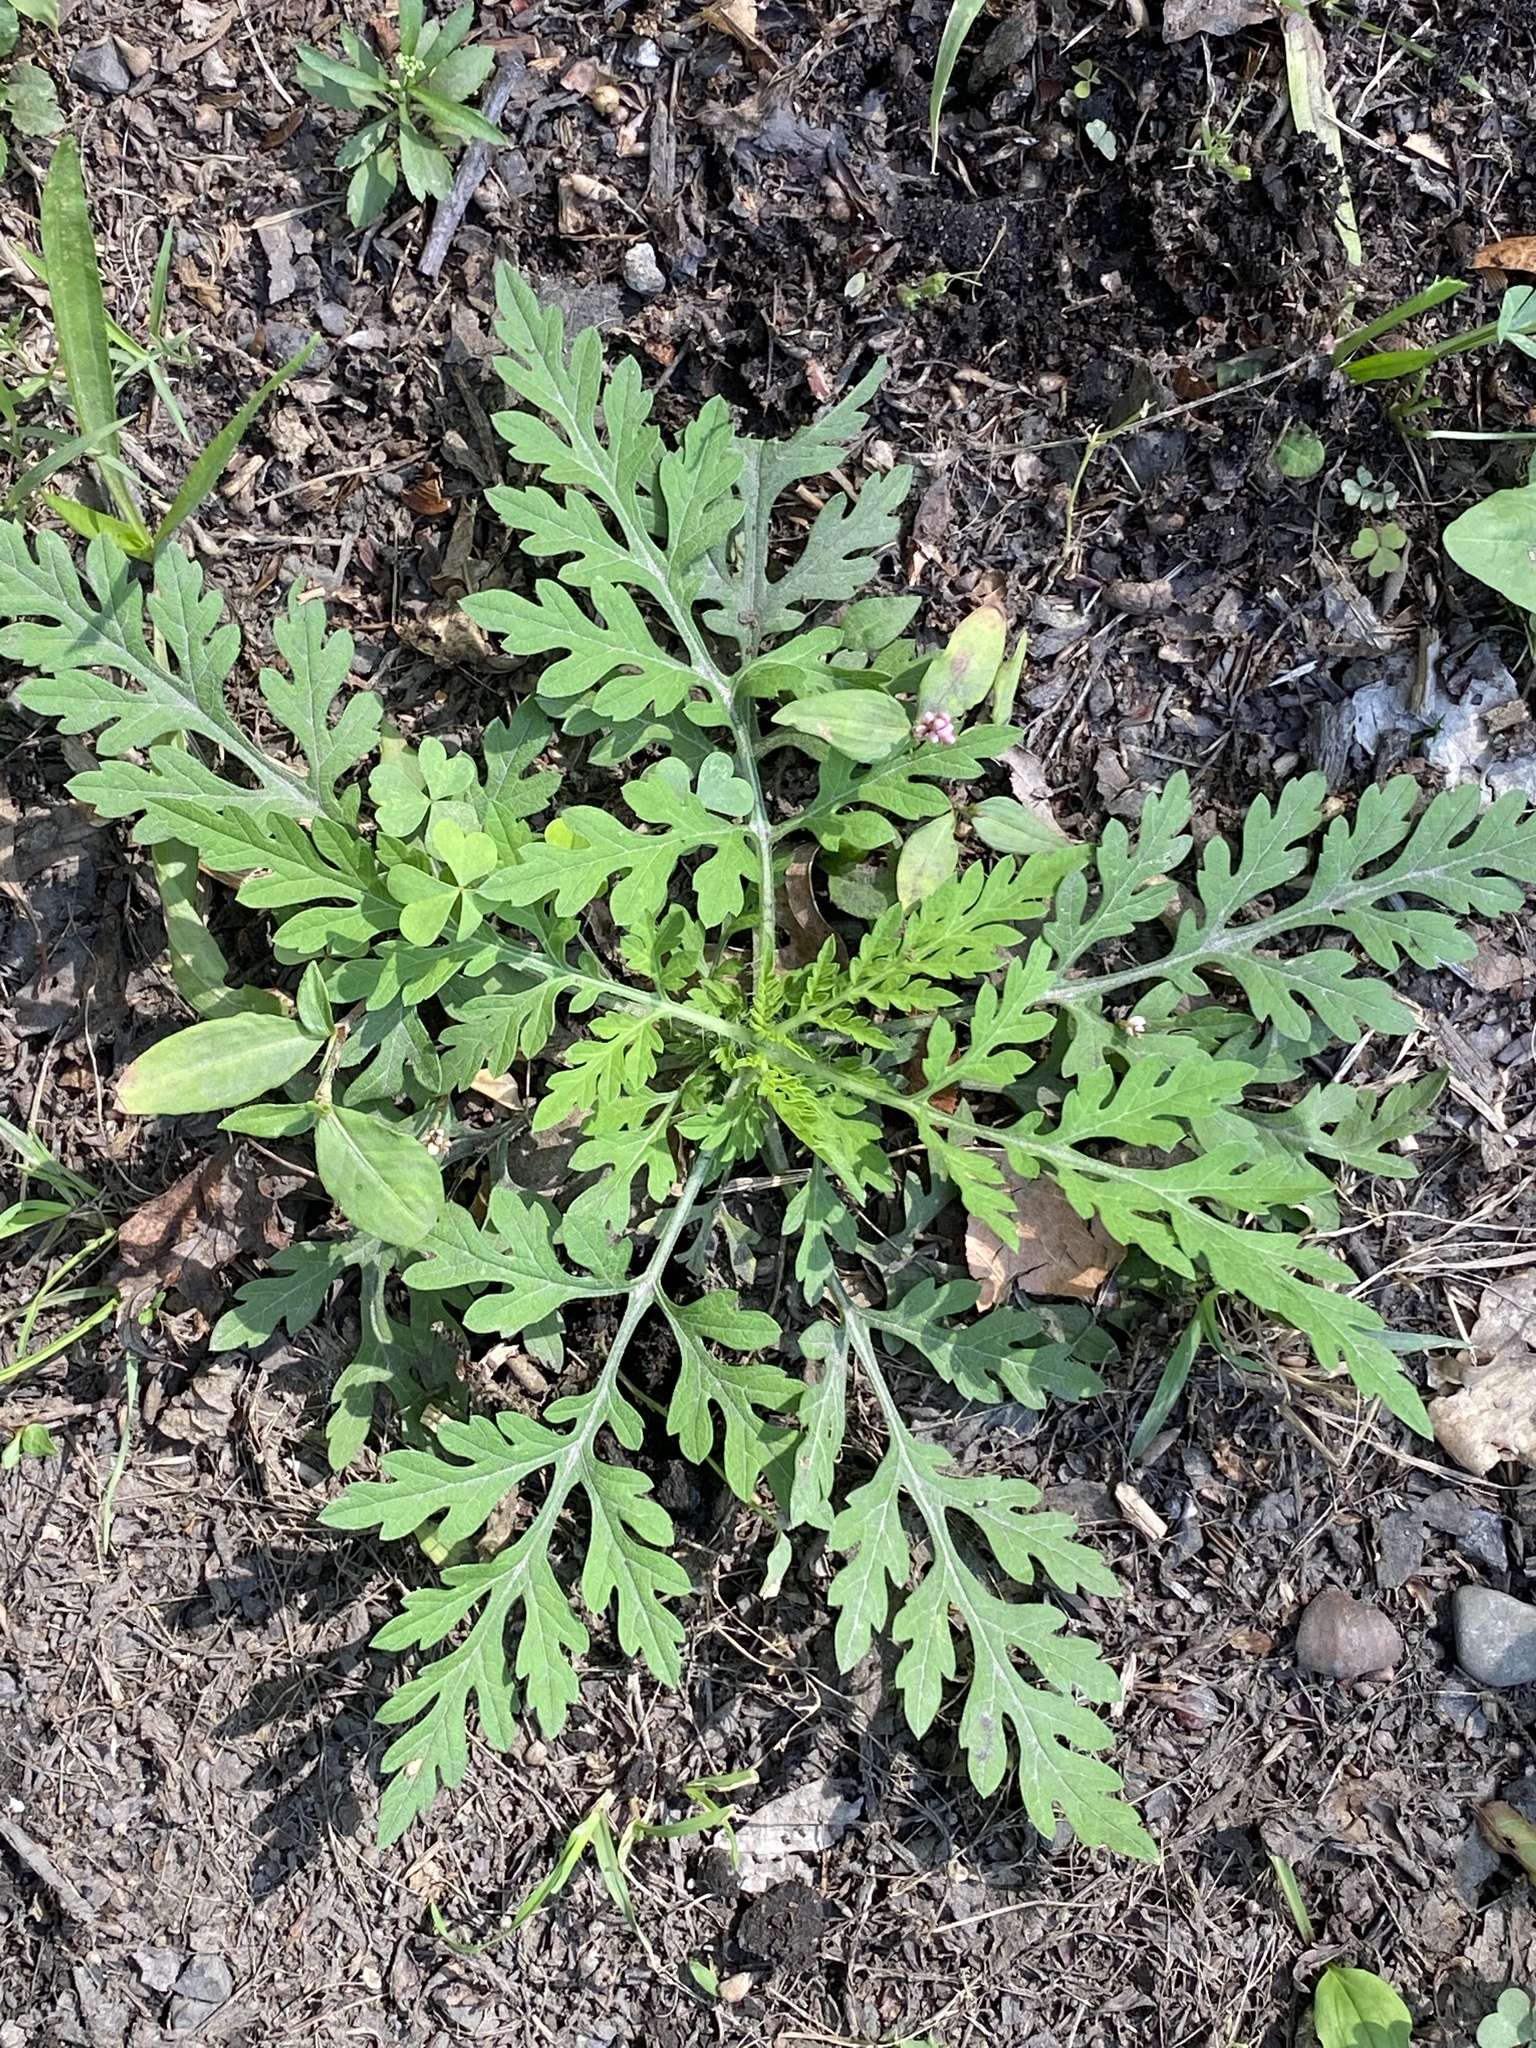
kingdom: Plantae
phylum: Tracheophyta
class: Magnoliopsida
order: Asterales
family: Asteraceae
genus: Ambrosia
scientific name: Ambrosia artemisiifolia
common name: Annual ragweed
